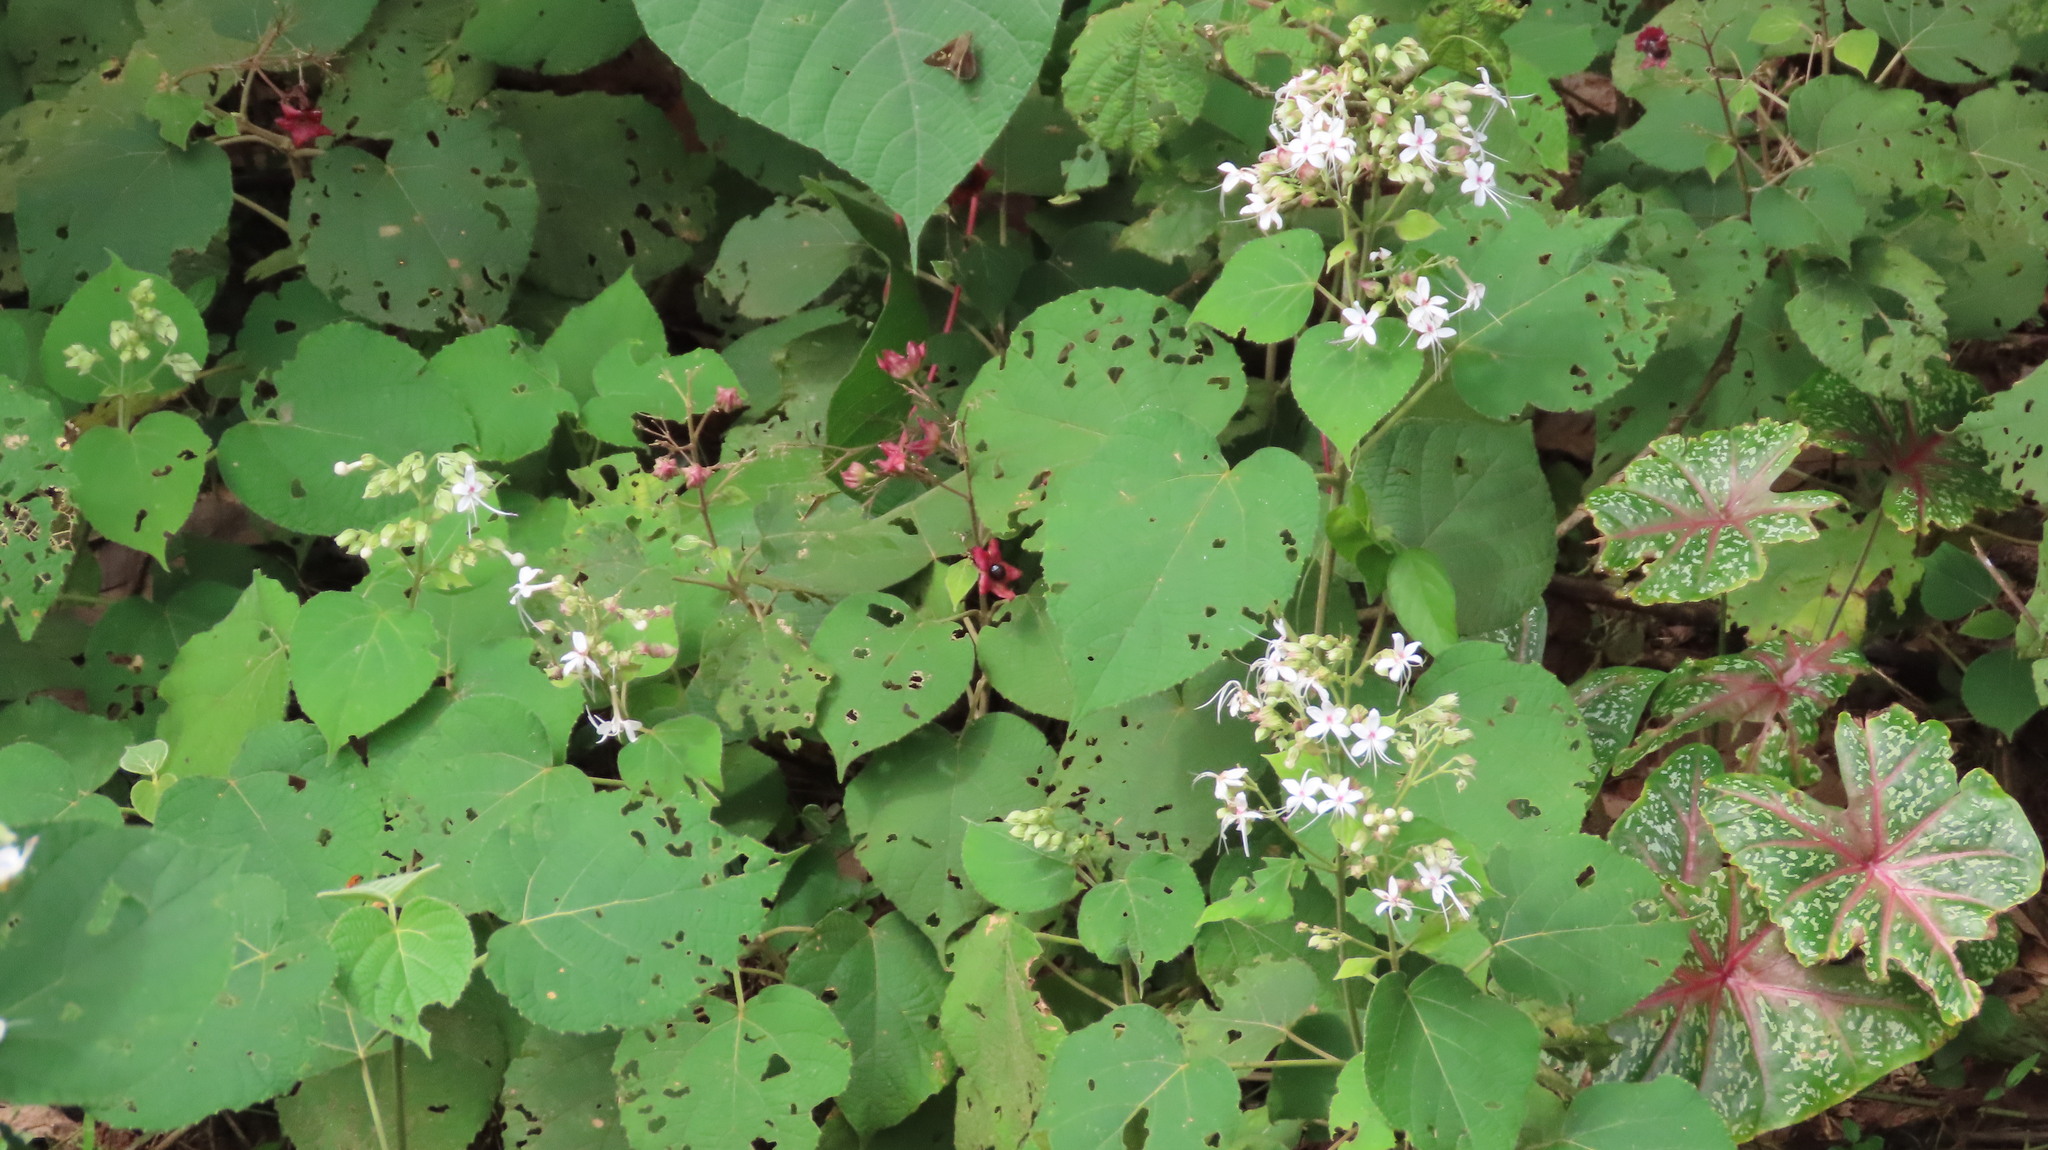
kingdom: Plantae
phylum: Tracheophyta
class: Magnoliopsida
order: Lamiales
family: Lamiaceae
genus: Clerodendrum
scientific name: Clerodendrum infortunatum
